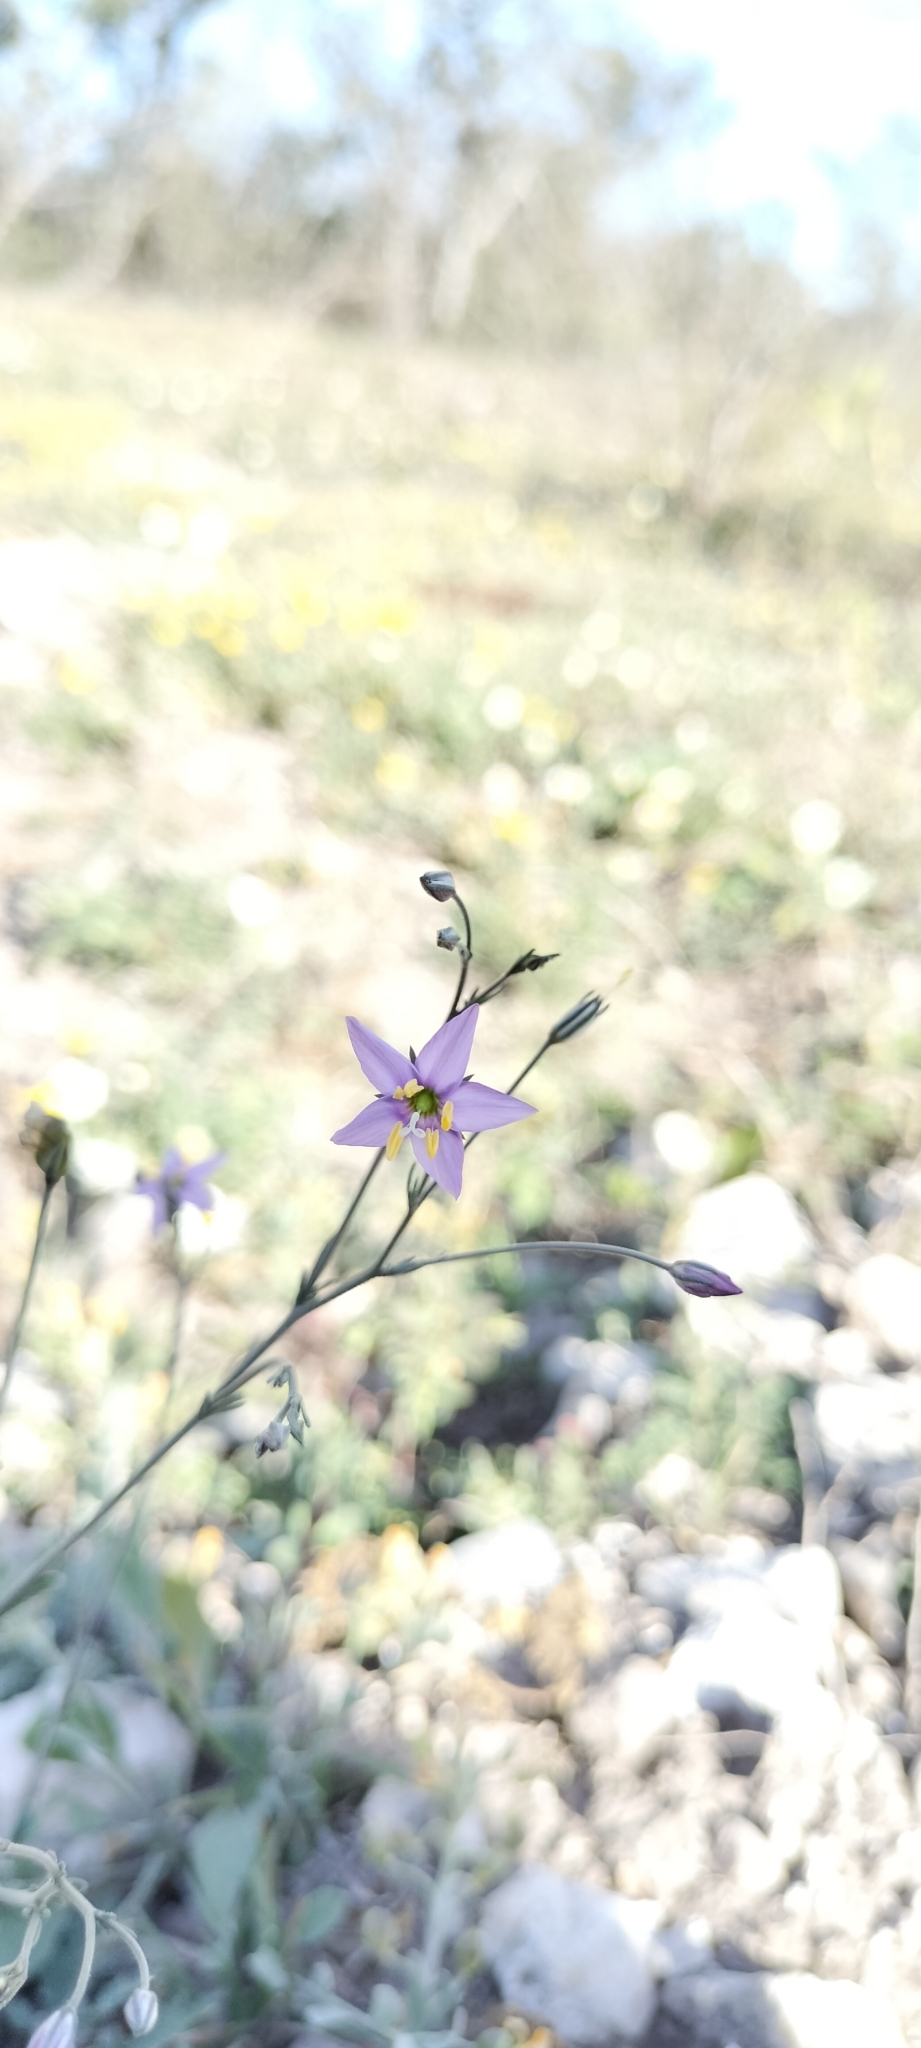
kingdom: Plantae
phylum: Tracheophyta
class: Magnoliopsida
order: Ericales
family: Polemoniaceae
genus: Giliastrum
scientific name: Giliastrum incisum
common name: Splitleaf gilia
